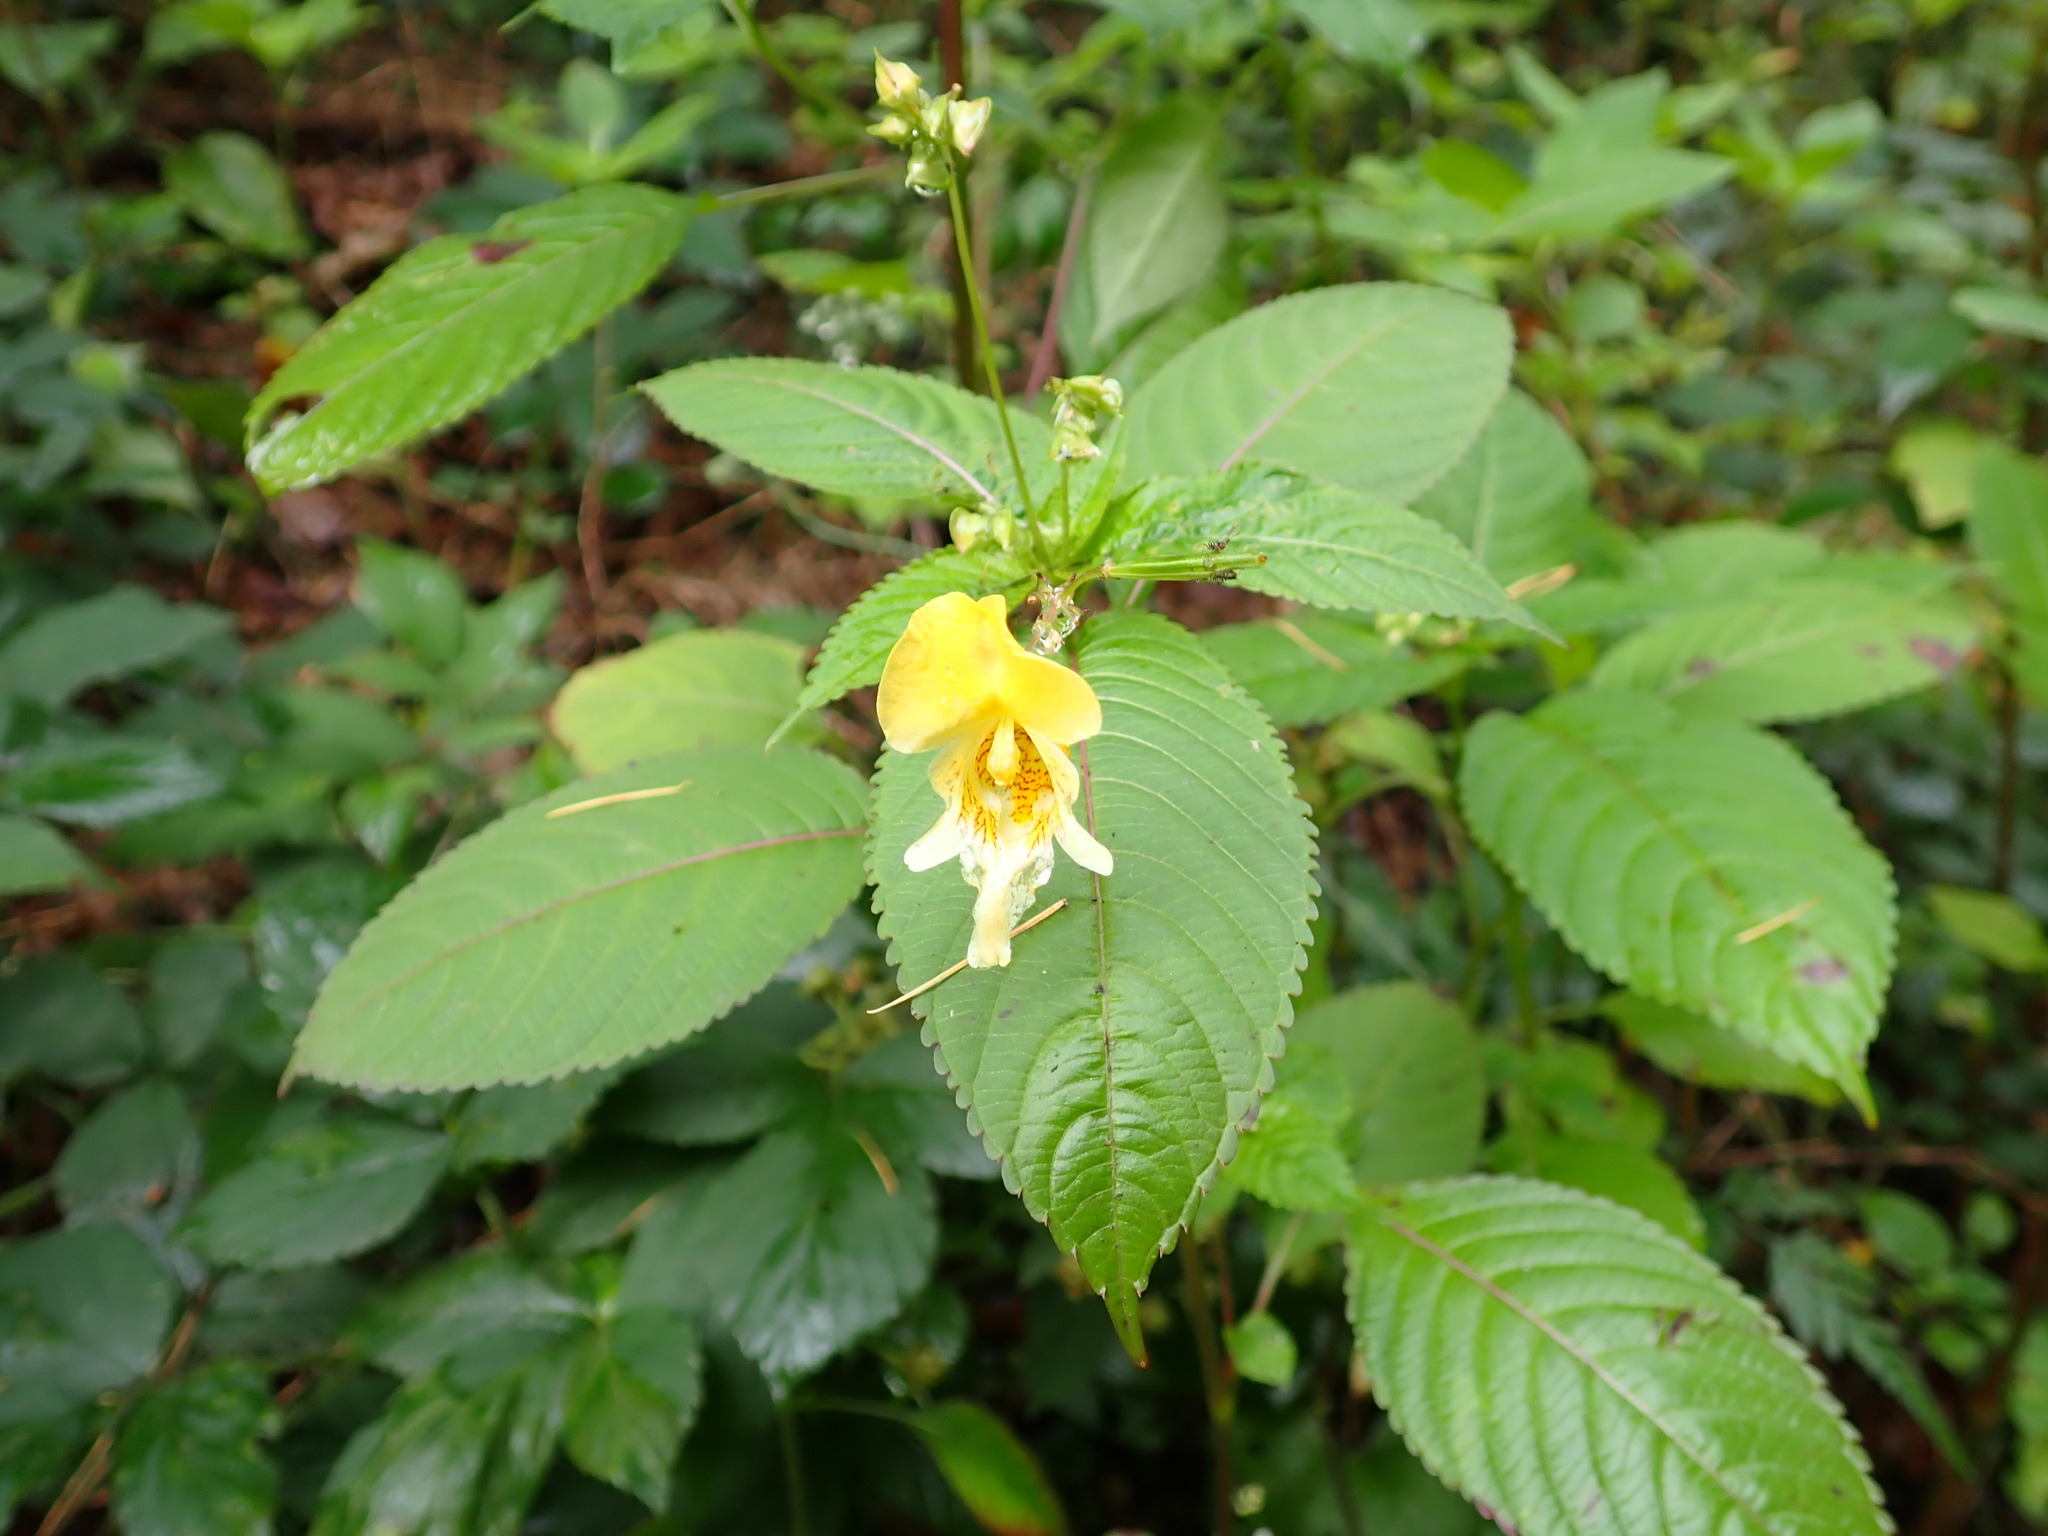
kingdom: Plantae
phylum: Tracheophyta
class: Magnoliopsida
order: Ericales
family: Balsaminaceae
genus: Impatiens
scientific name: Impatiens edgeworthii
